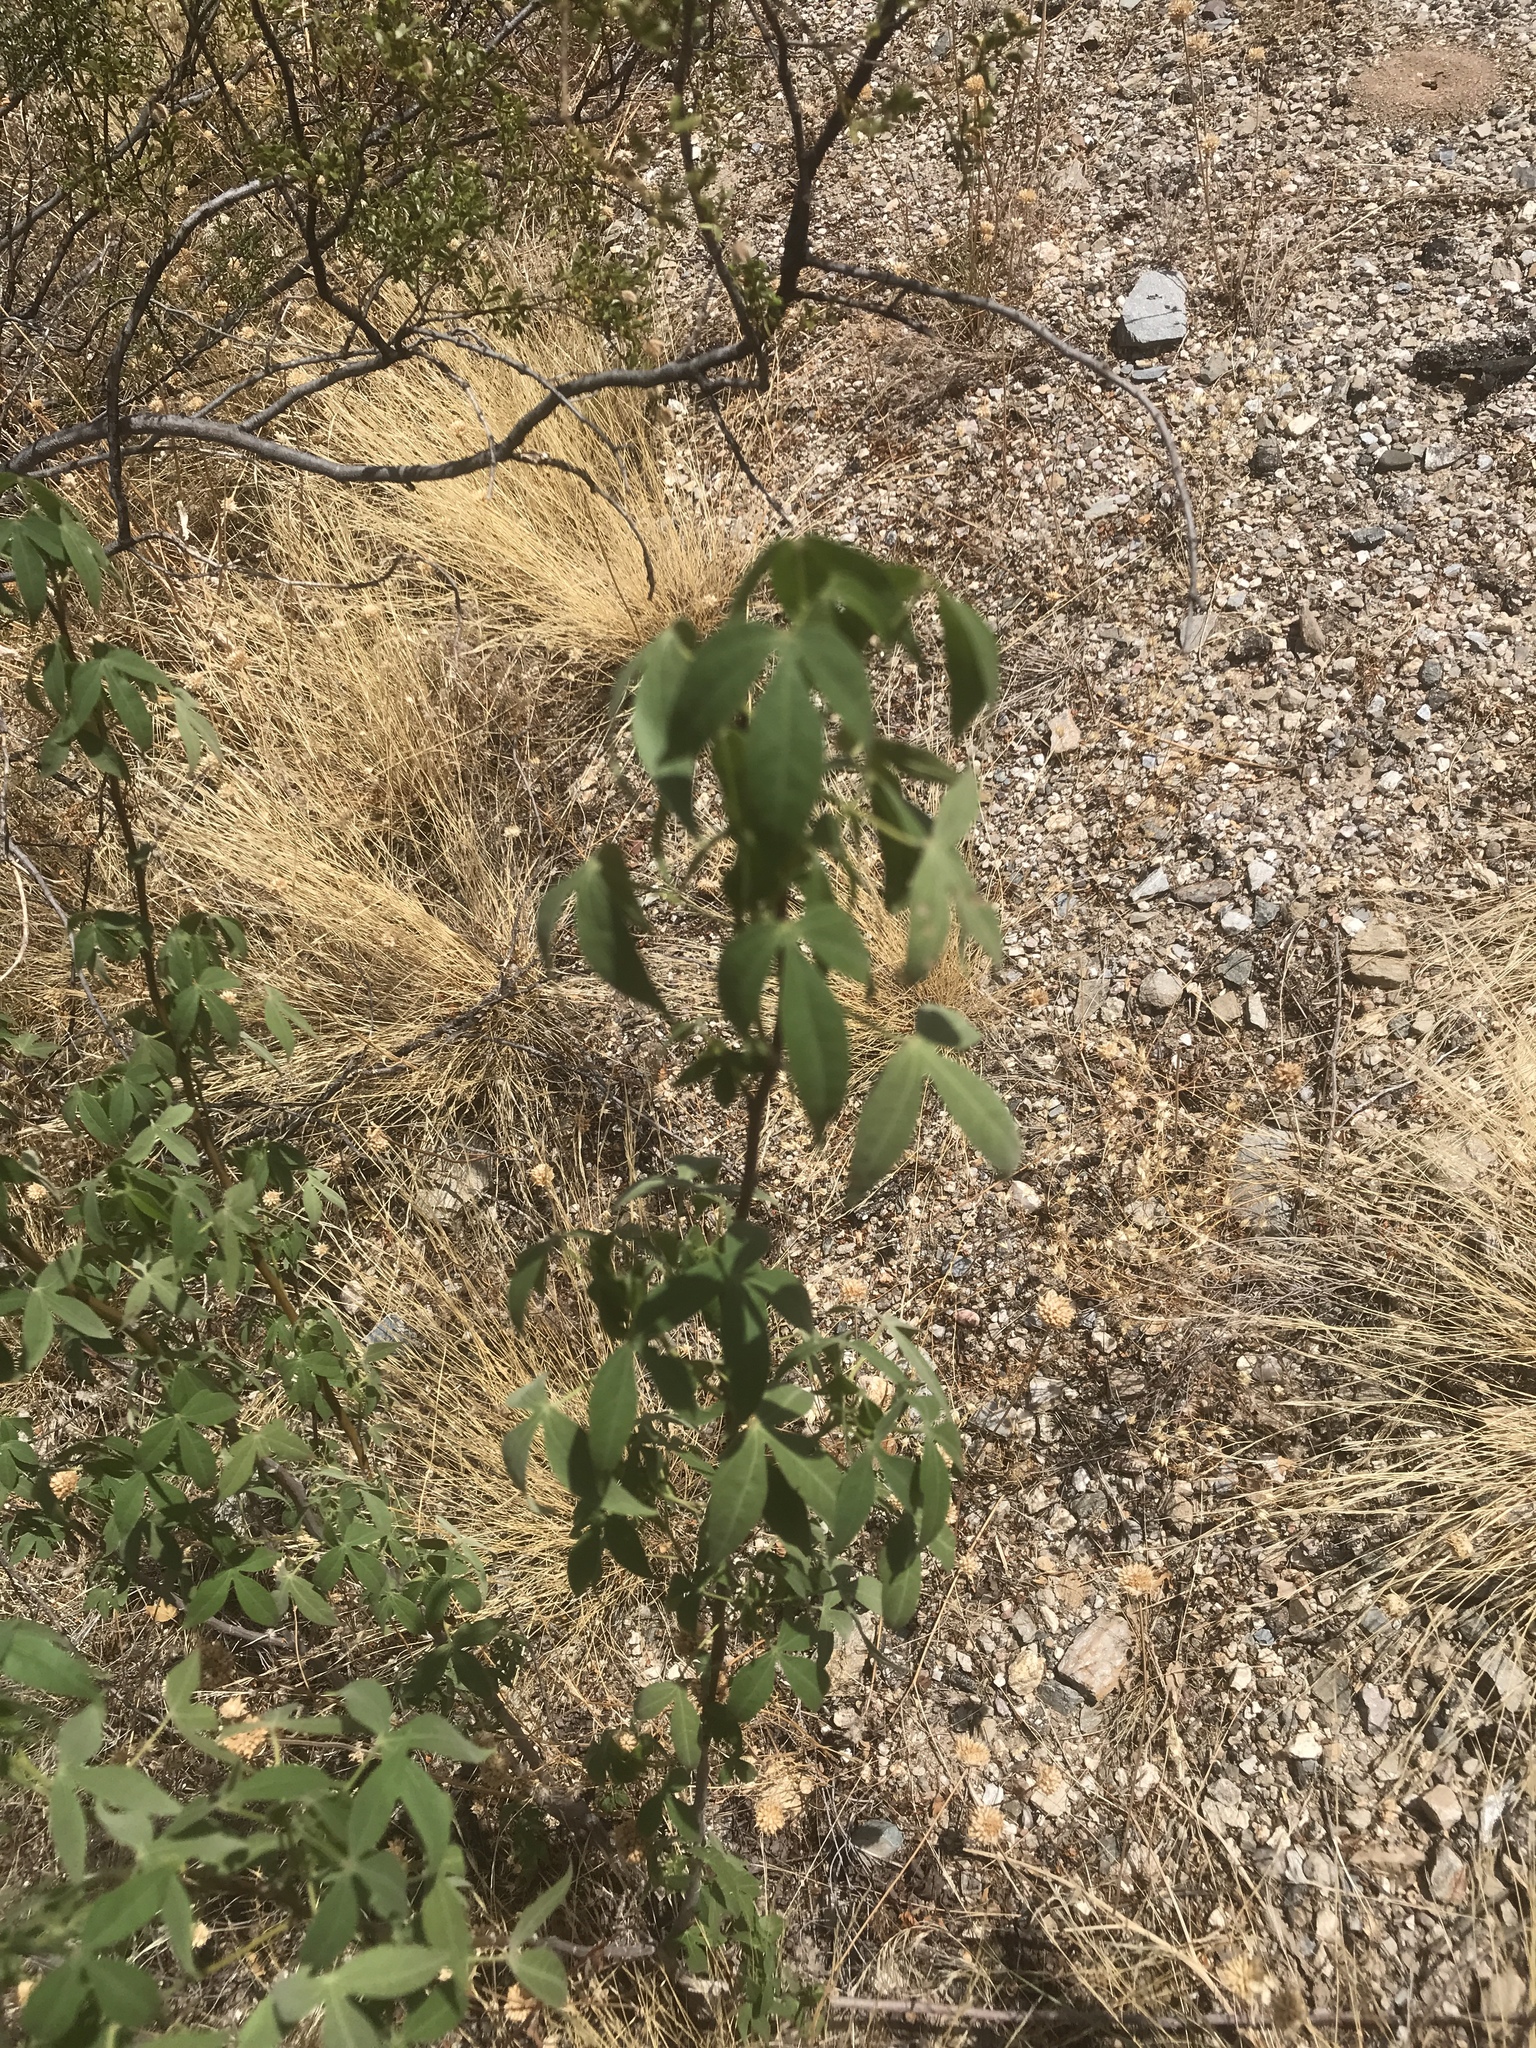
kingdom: Plantae
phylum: Tracheophyta
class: Magnoliopsida
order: Malvales
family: Malvaceae
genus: Gossypium
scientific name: Gossypium thurberi
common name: Desert cotton
